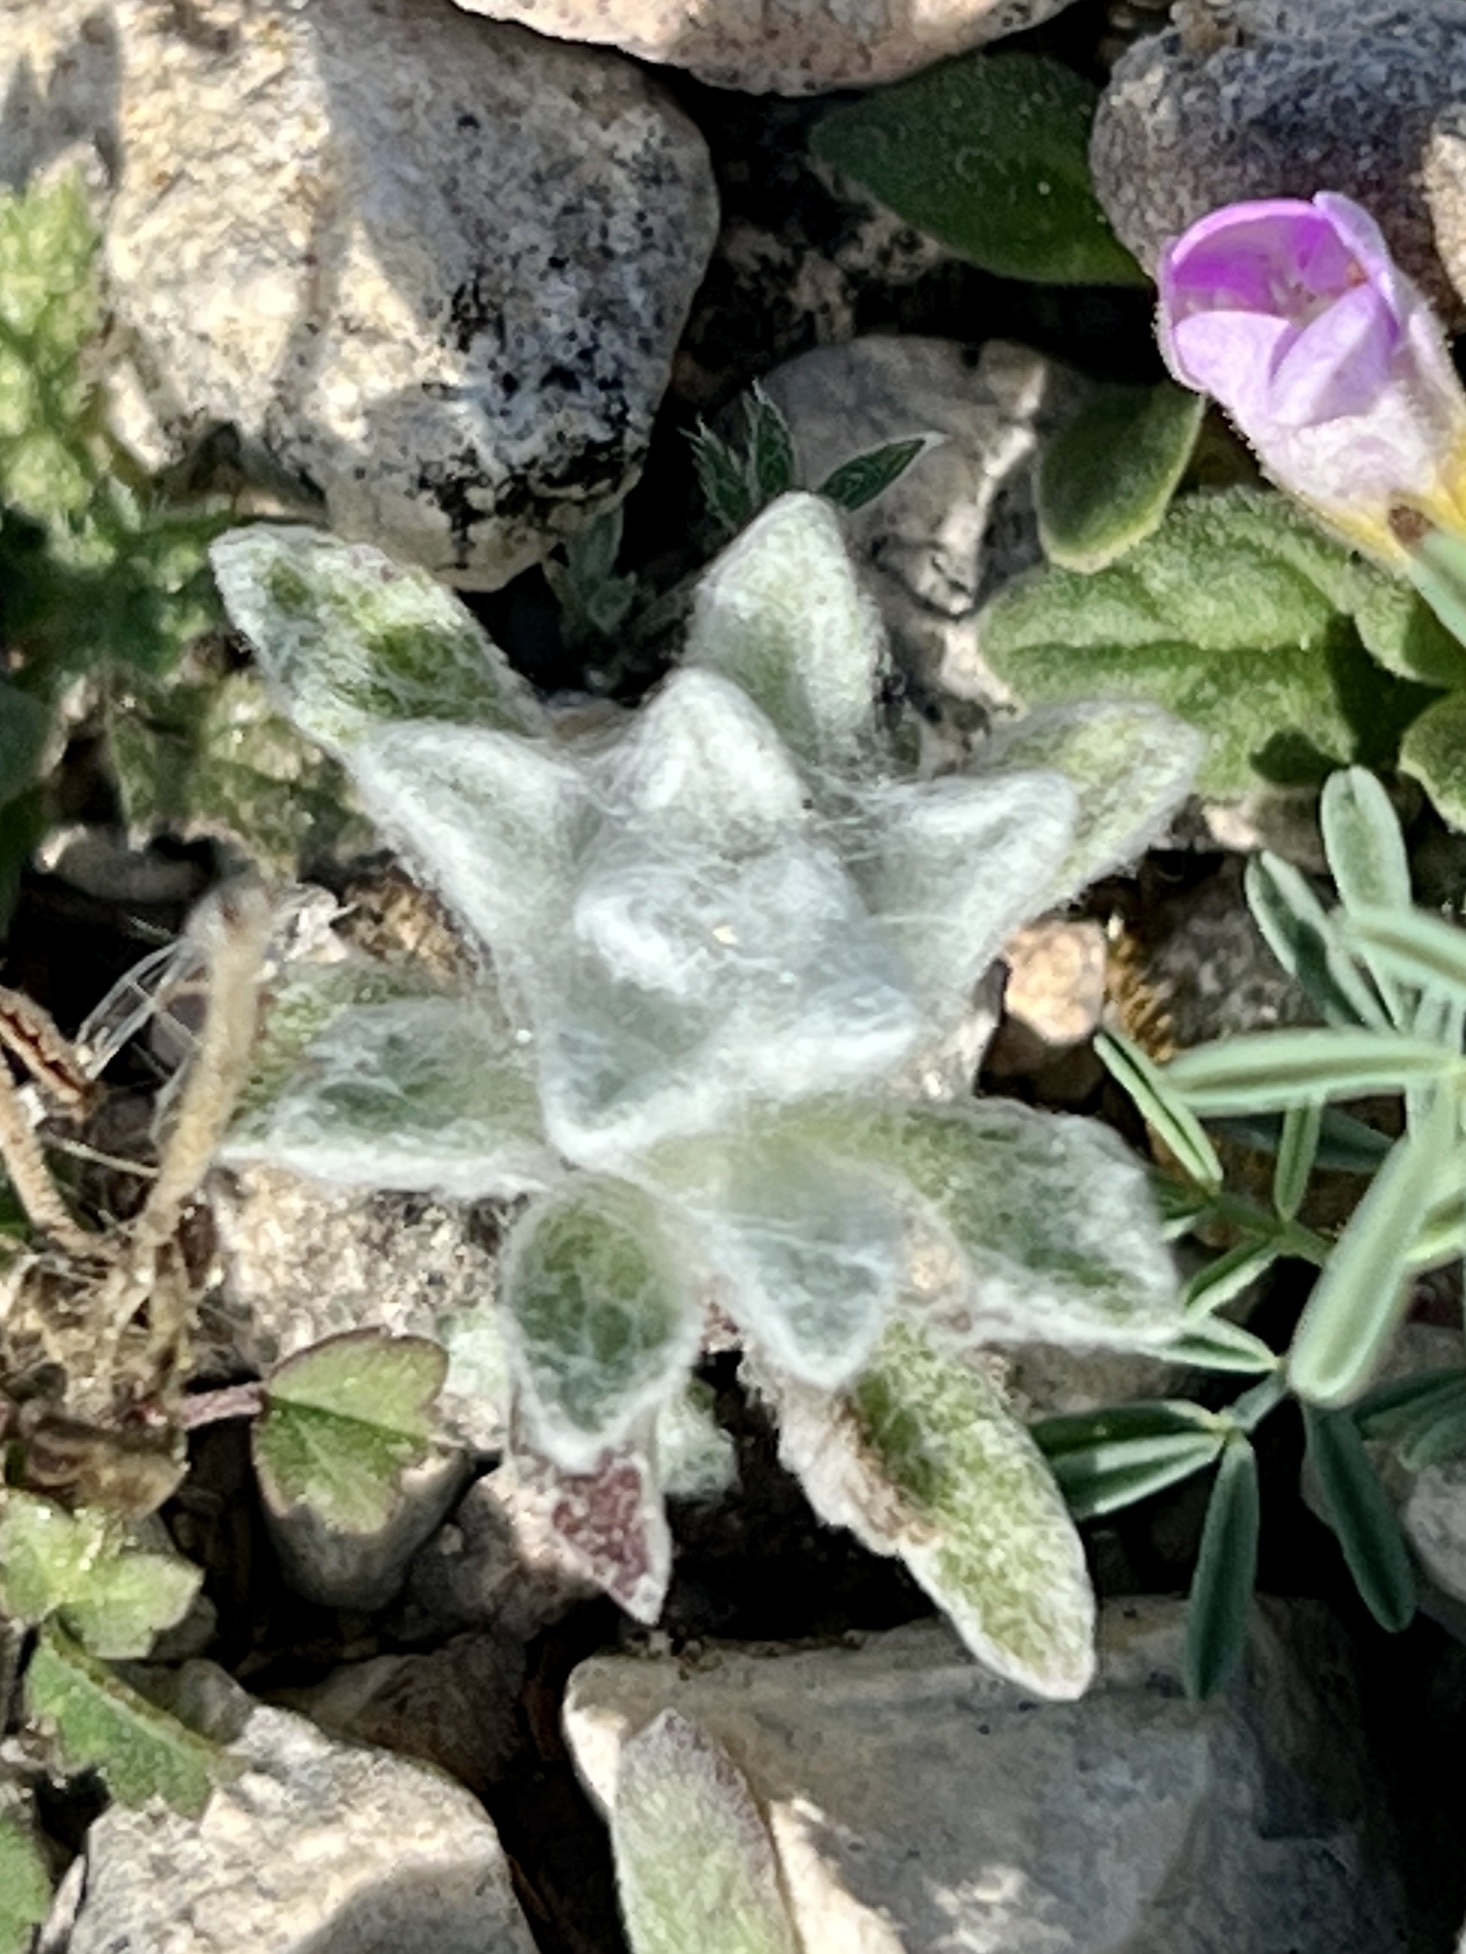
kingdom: Plantae
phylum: Tracheophyta
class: Magnoliopsida
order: Asterales
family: Asteraceae
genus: Thymophylla
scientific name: Thymophylla micropoides
